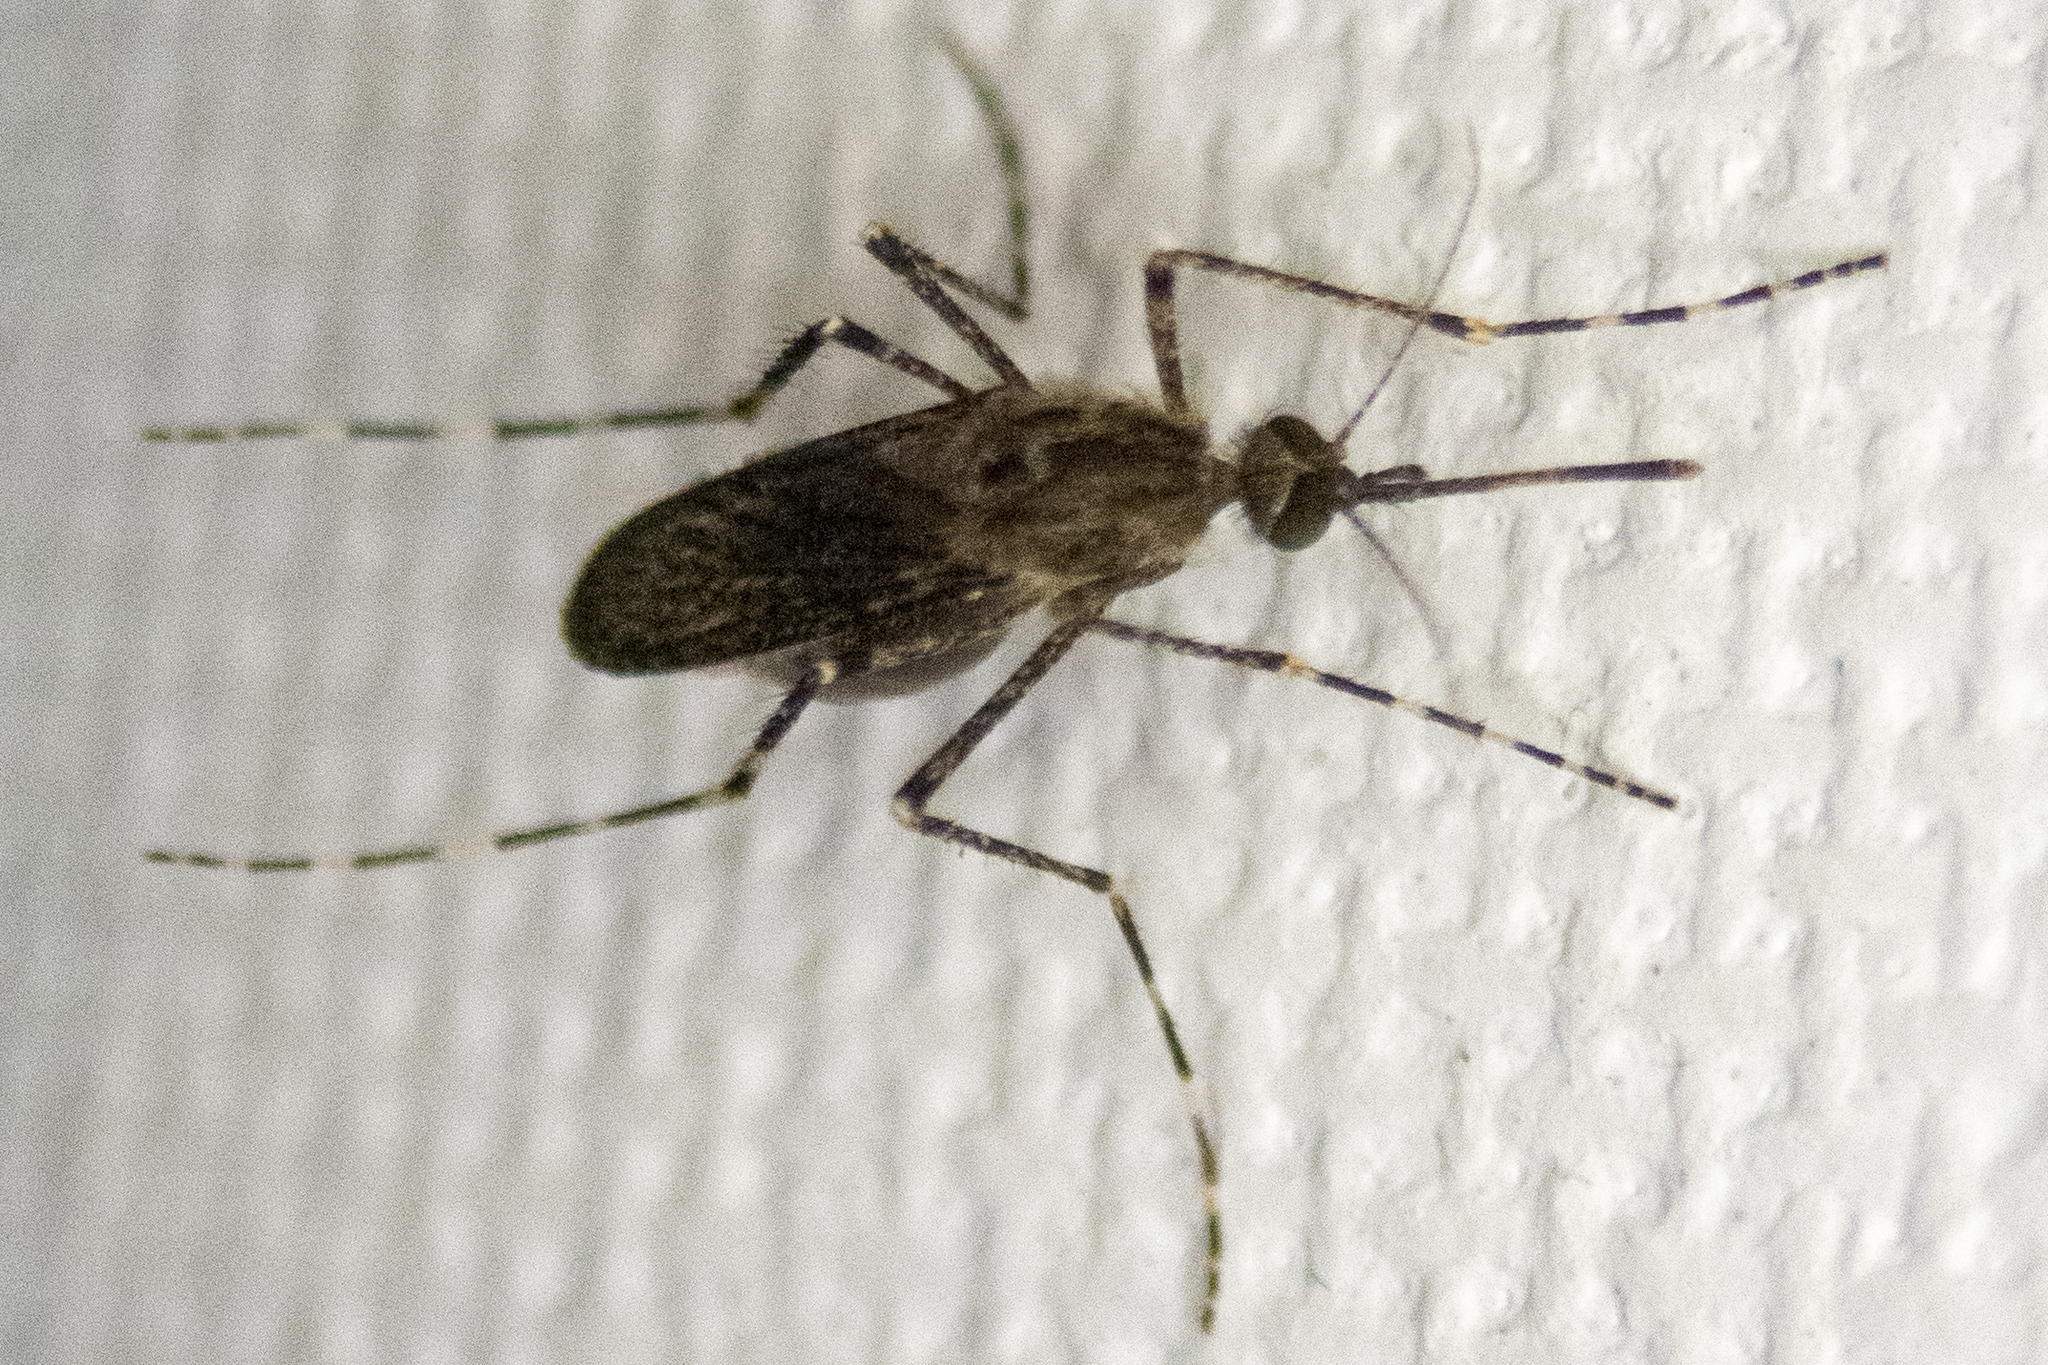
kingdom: Animalia
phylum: Arthropoda
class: Insecta
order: Diptera
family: Culicidae
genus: Coquillettidia
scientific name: Coquillettidia perturbans
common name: Cattail mosquito
